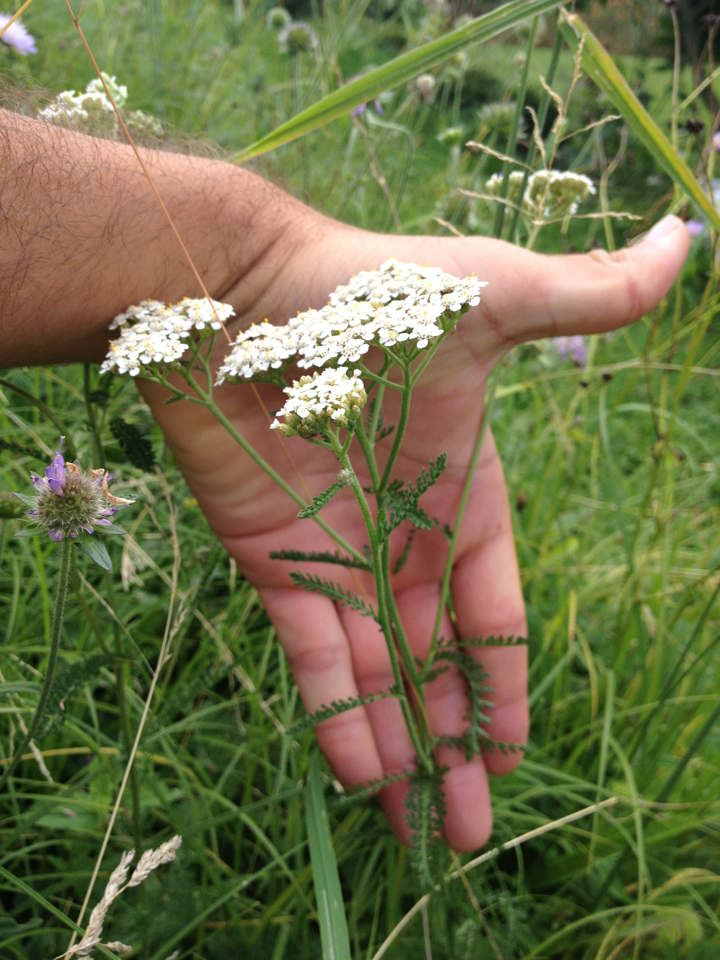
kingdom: Plantae
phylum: Tracheophyta
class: Magnoliopsida
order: Asterales
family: Asteraceae
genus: Achillea
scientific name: Achillea millefolium
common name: Yarrow
